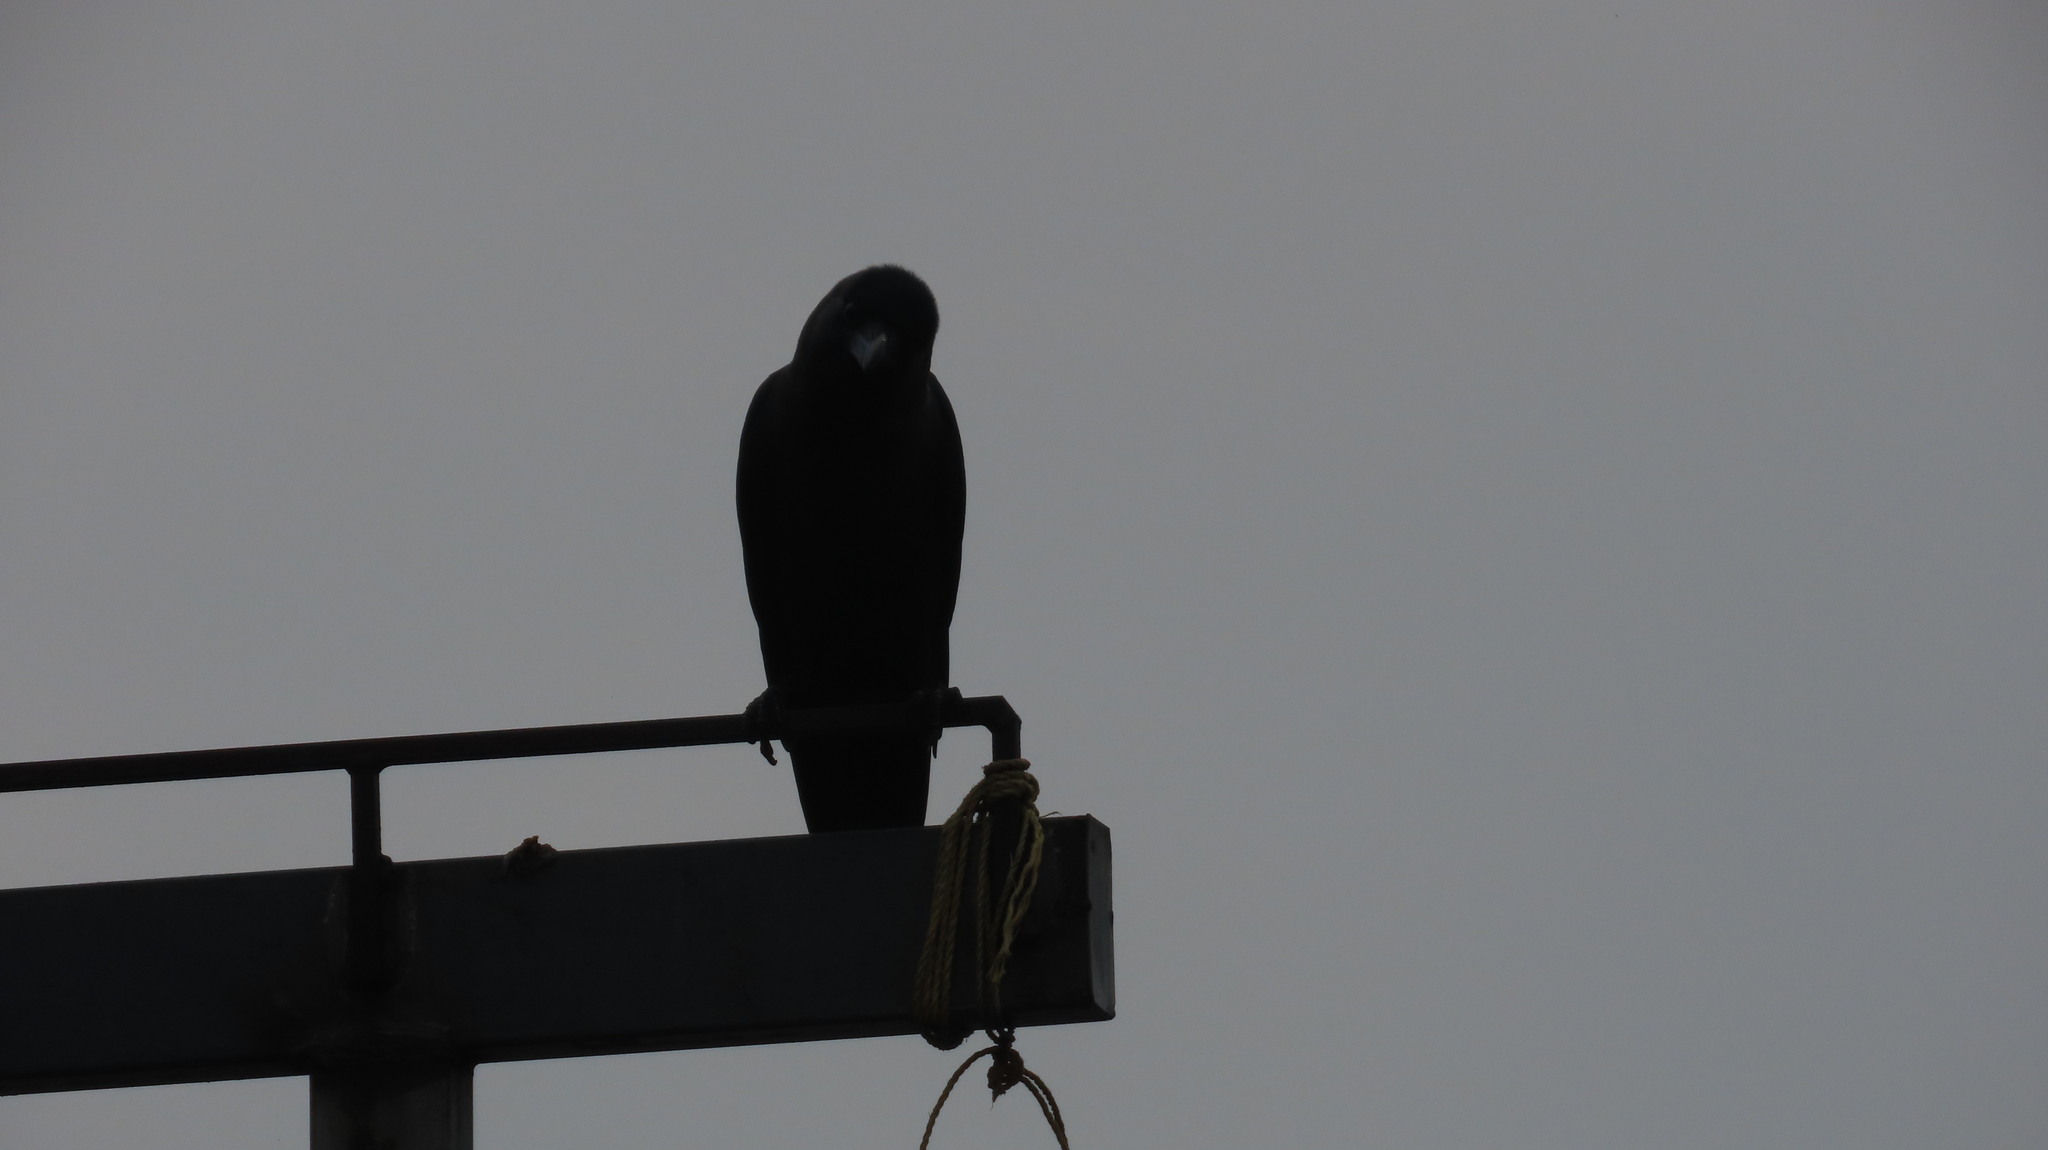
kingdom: Animalia
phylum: Chordata
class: Aves
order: Passeriformes
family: Corvidae
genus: Corvus
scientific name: Corvus splendens
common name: House crow
